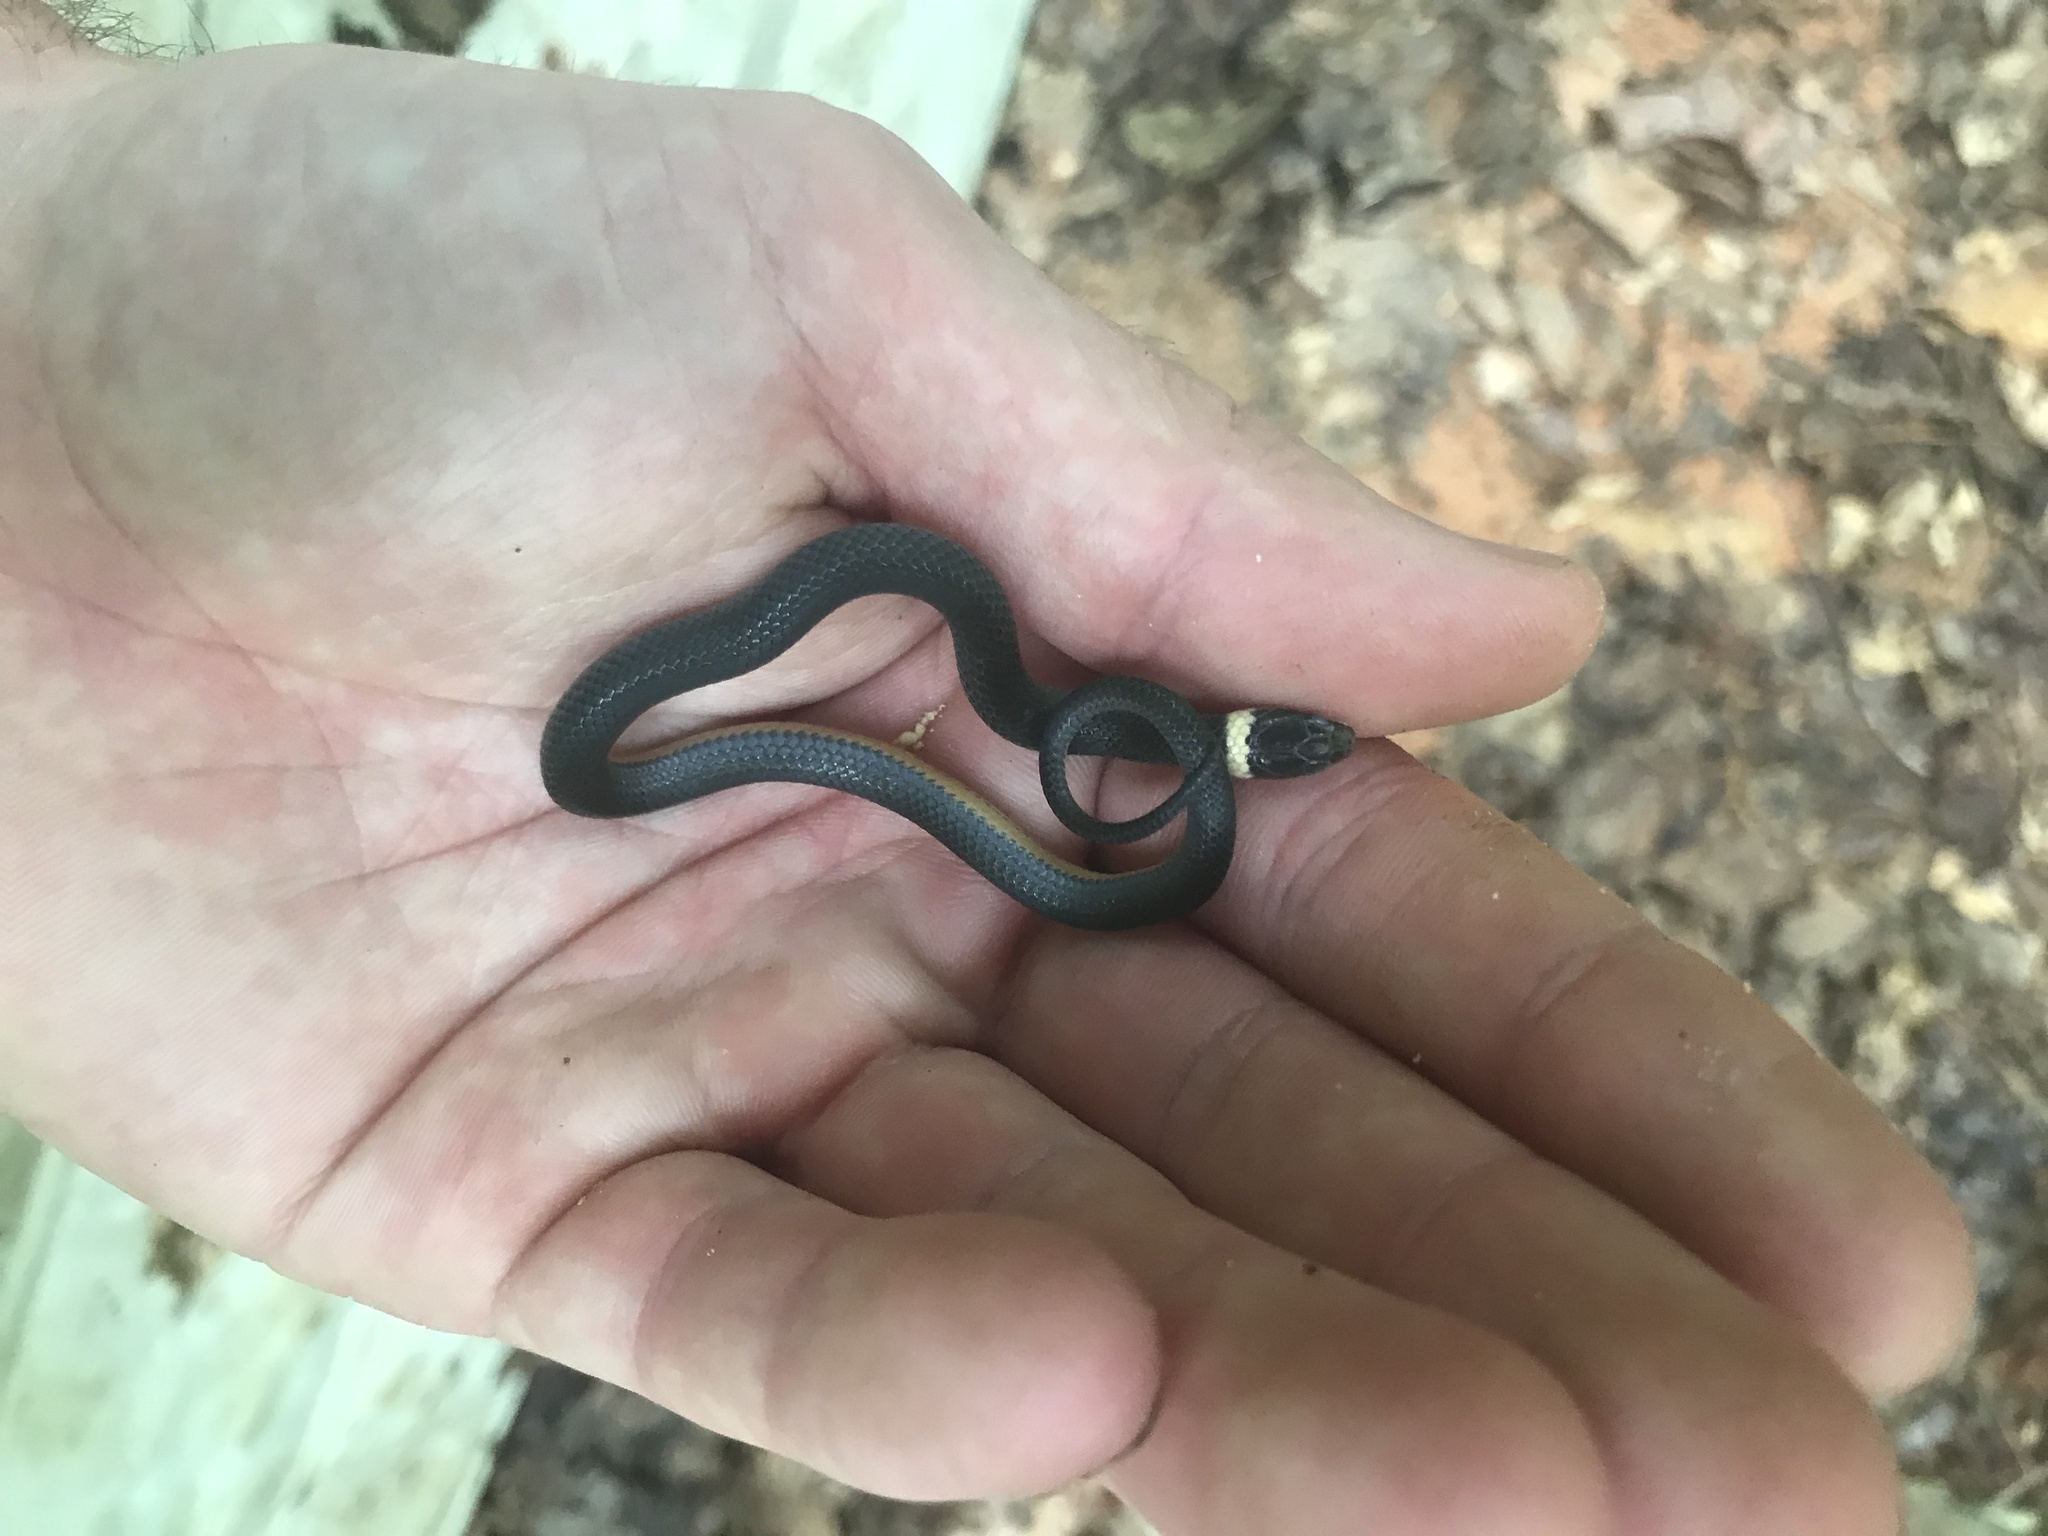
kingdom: Animalia
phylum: Chordata
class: Squamata
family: Colubridae
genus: Diadophis
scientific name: Diadophis punctatus
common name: Ringneck snake
